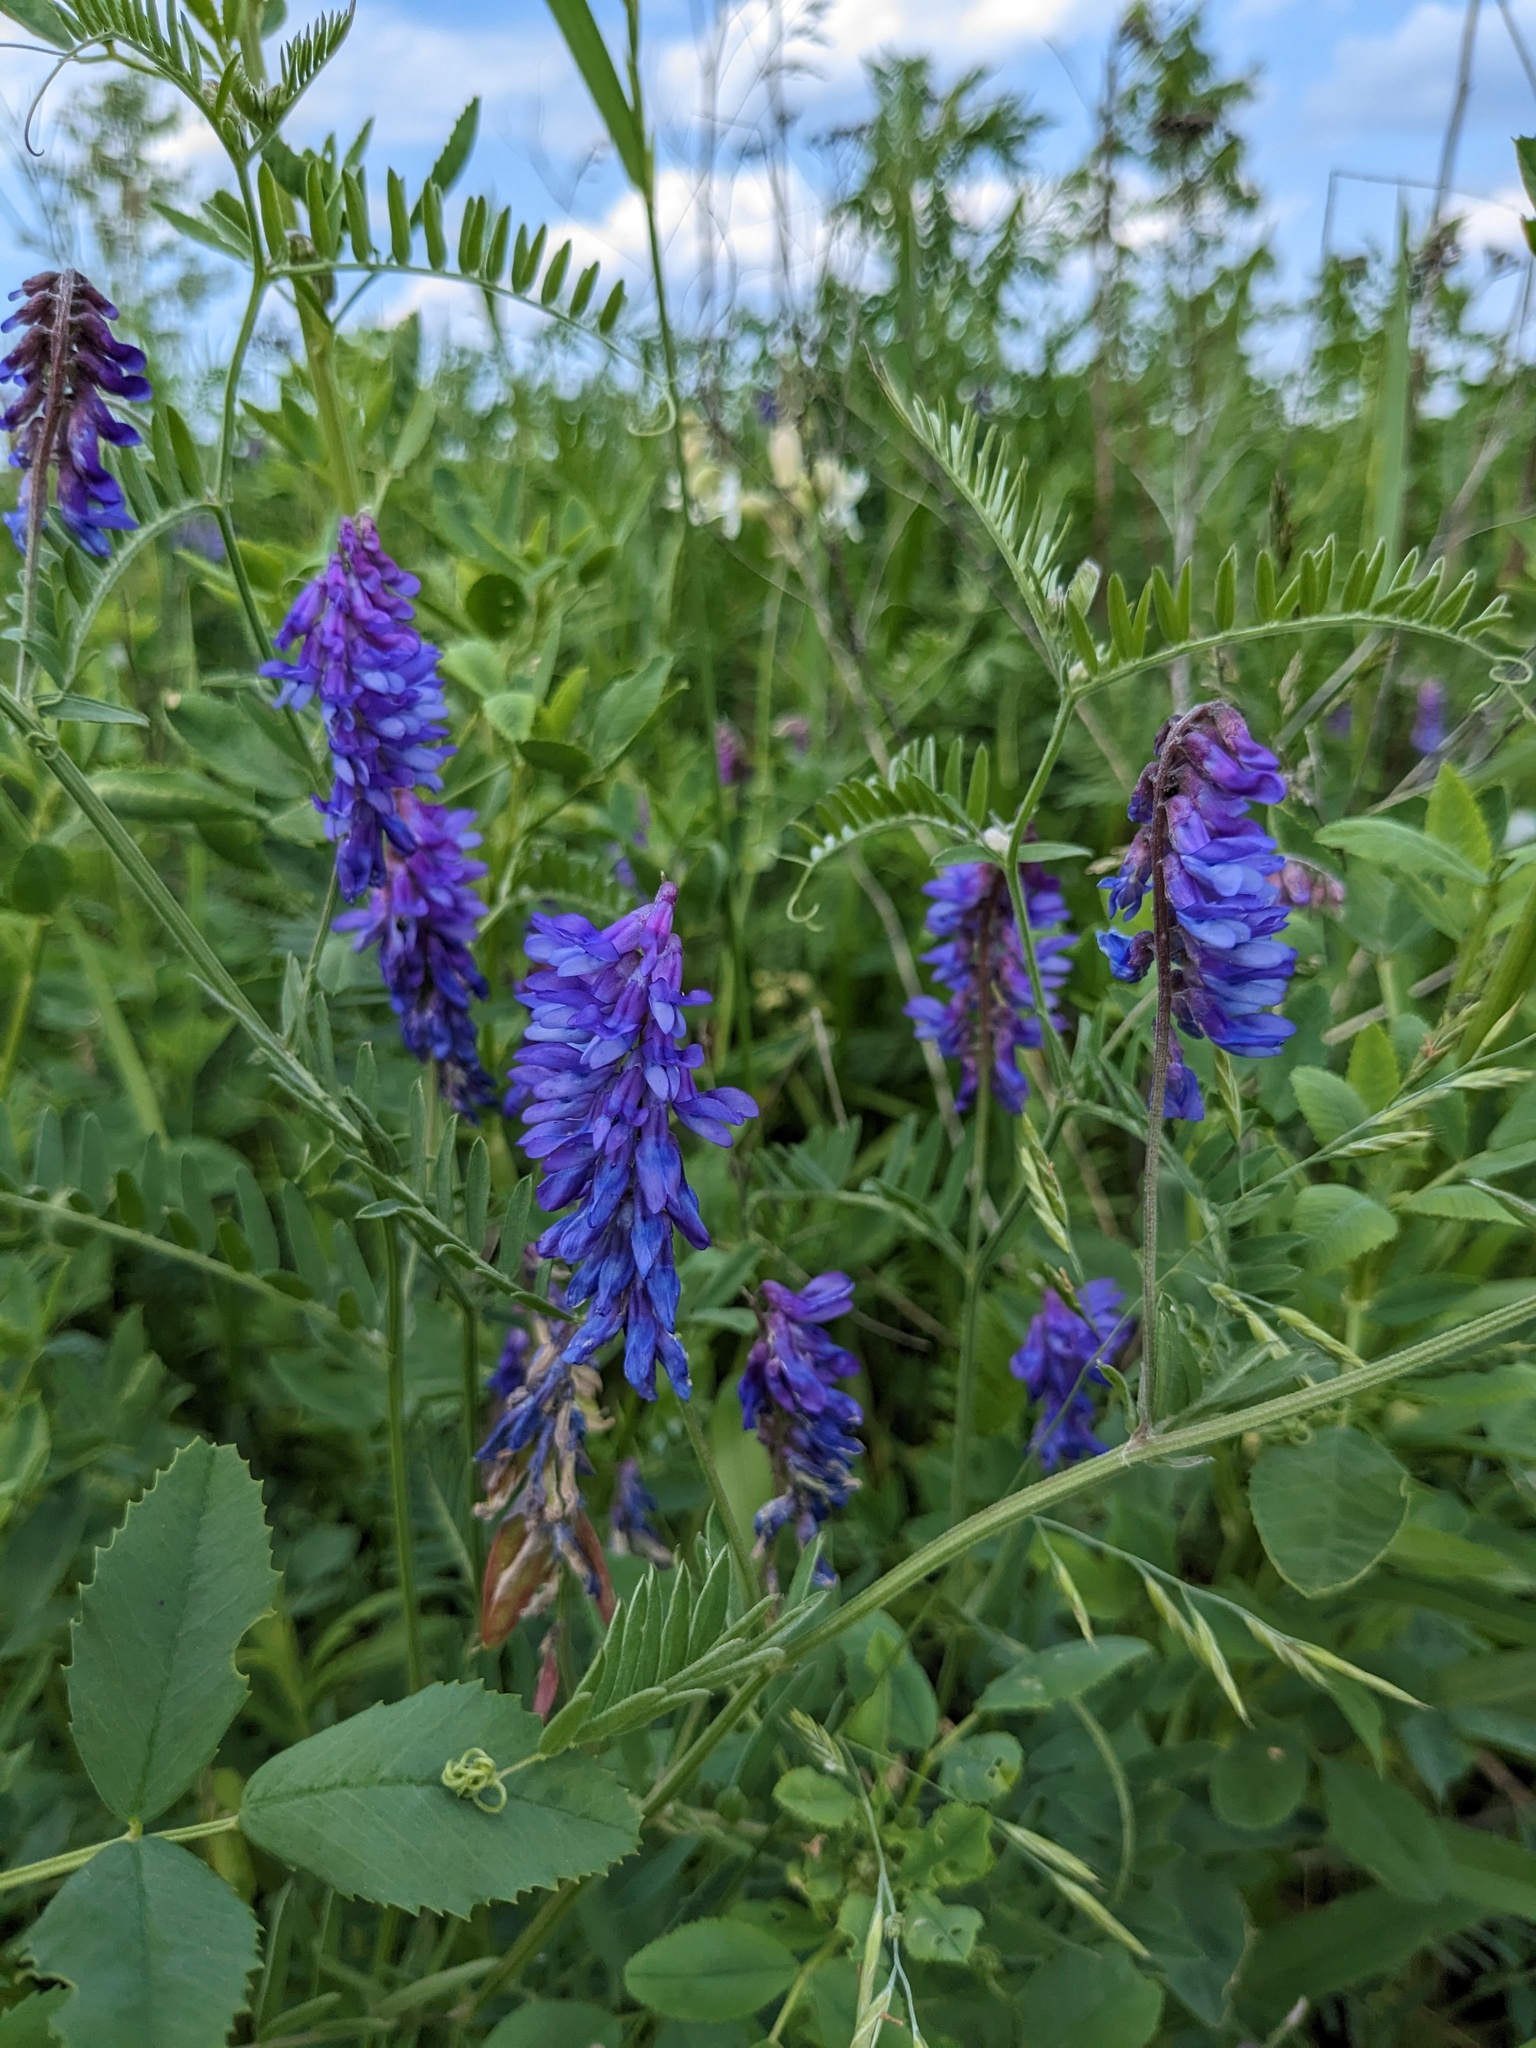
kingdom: Plantae
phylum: Tracheophyta
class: Magnoliopsida
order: Fabales
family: Fabaceae
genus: Vicia
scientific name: Vicia cracca
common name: Bird vetch
